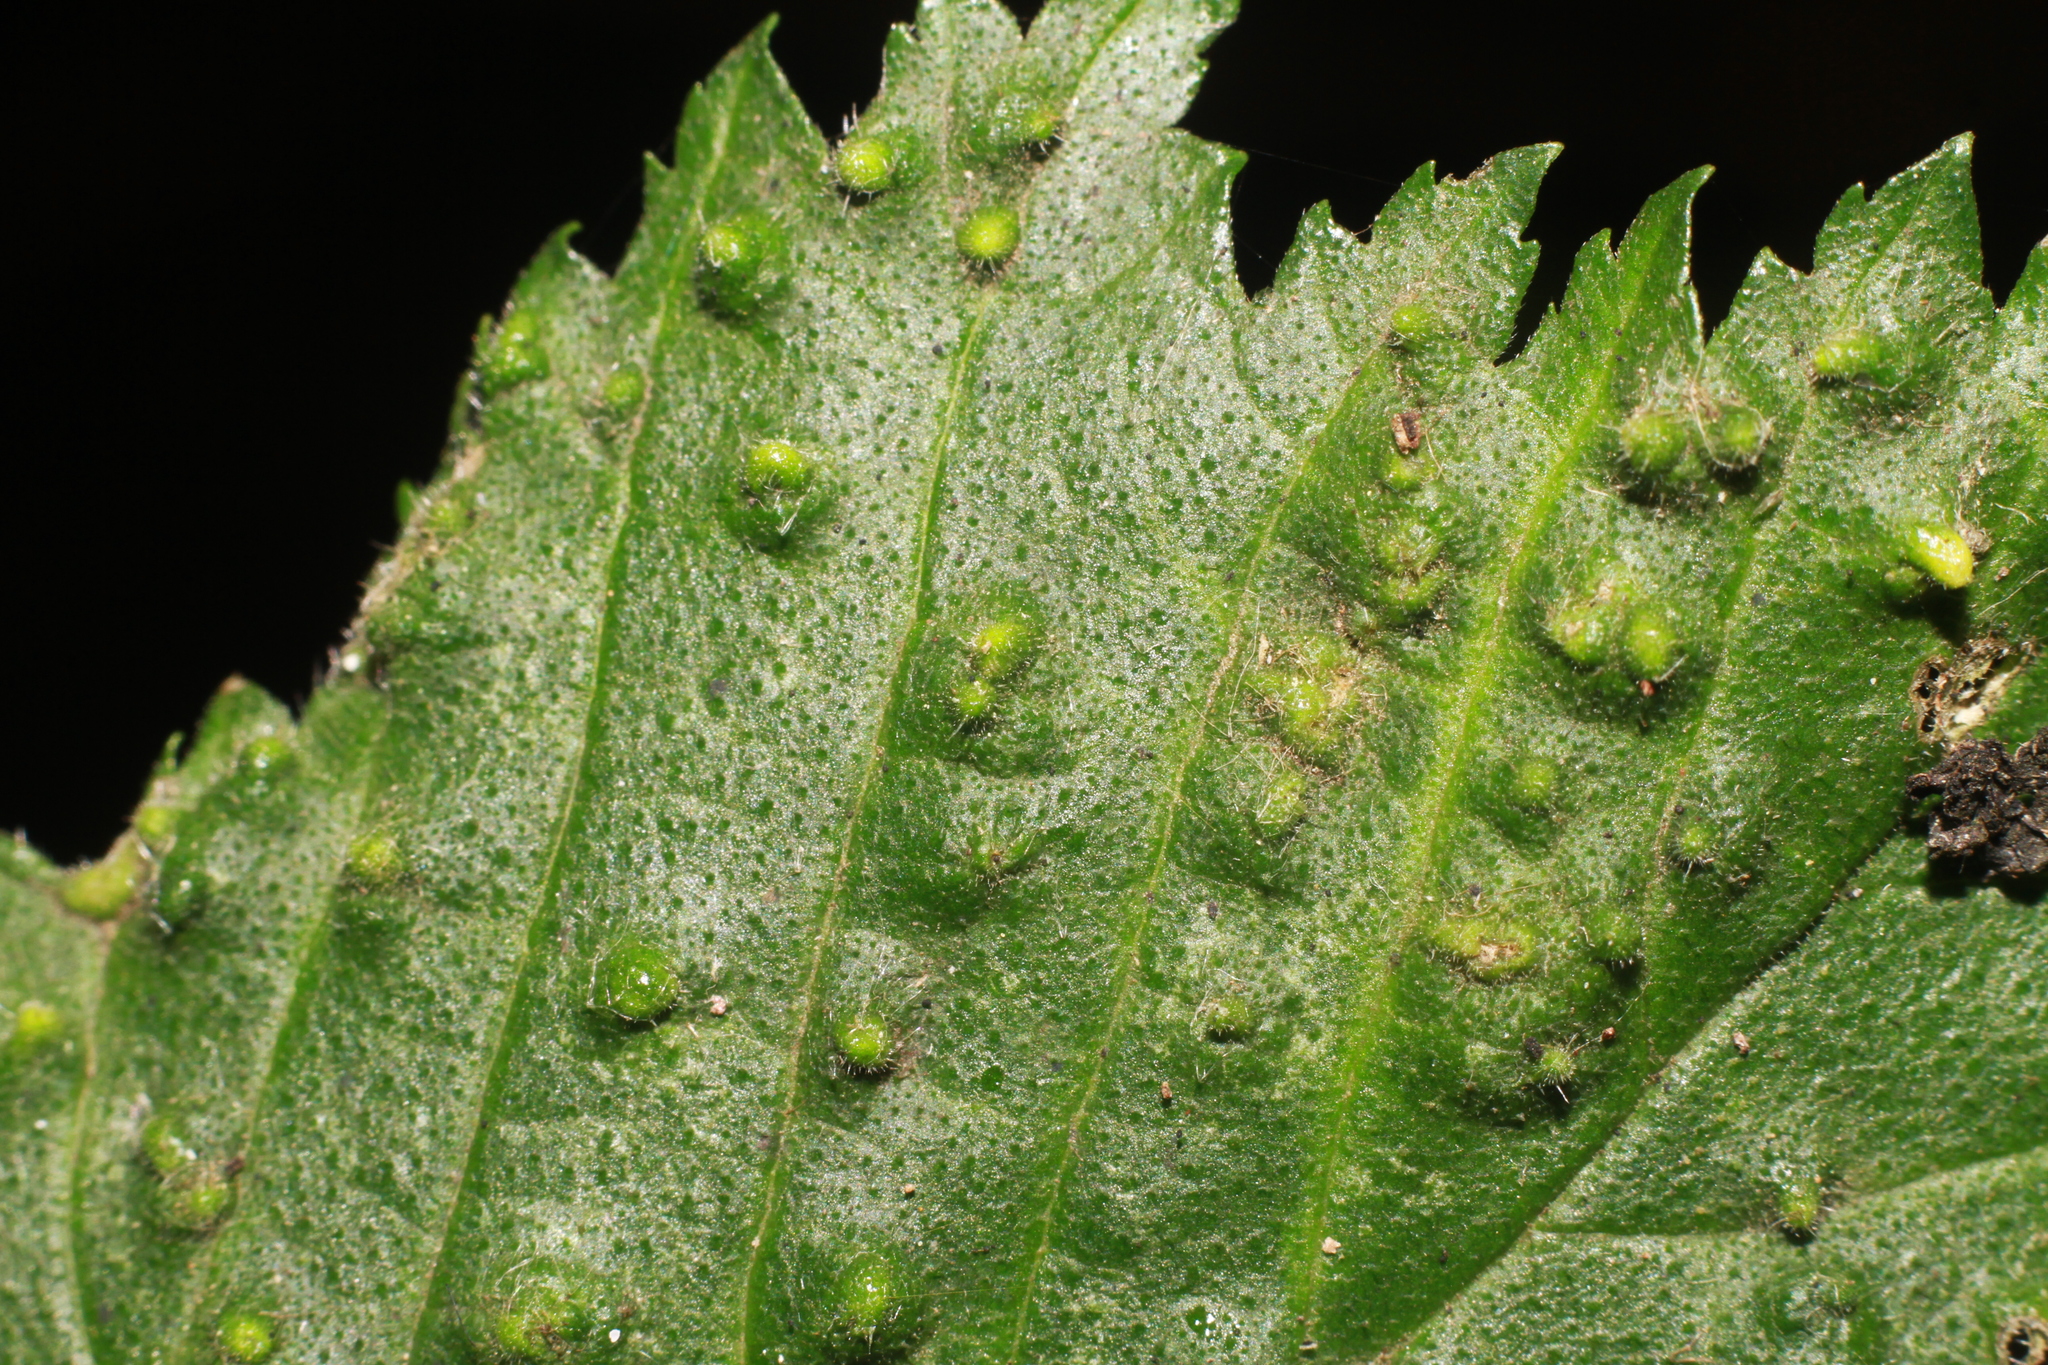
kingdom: Animalia
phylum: Arthropoda
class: Arachnida
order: Trombidiformes
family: Eriophyidae
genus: Aceria
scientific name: Aceria brevipunctata
